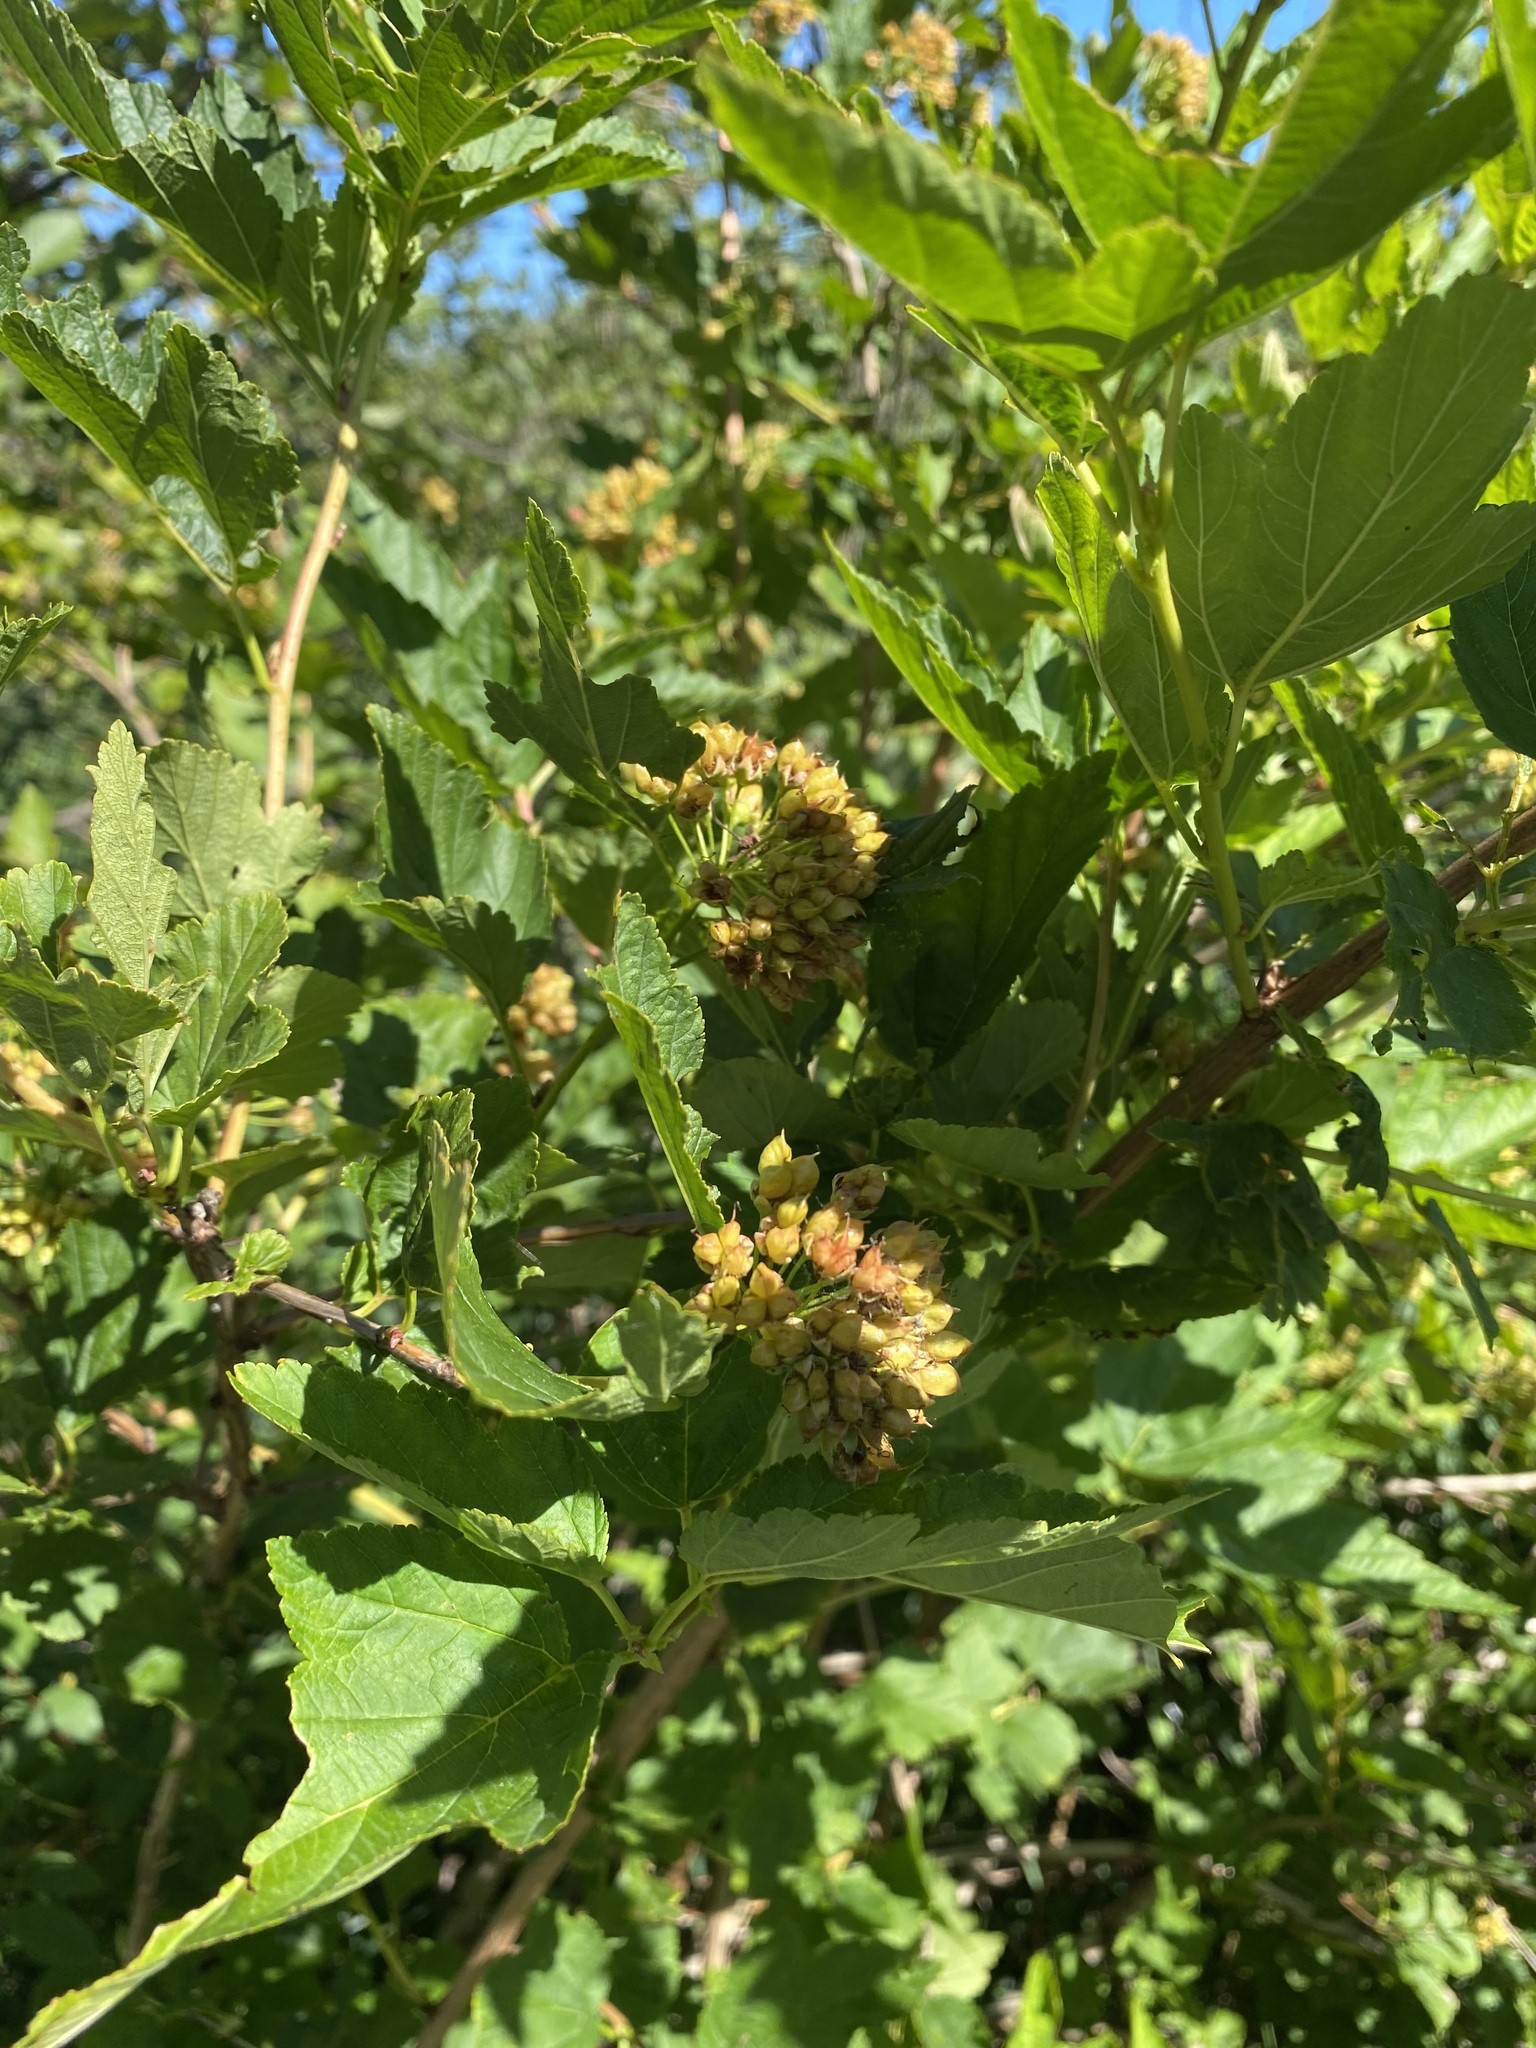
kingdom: Plantae
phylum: Tracheophyta
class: Magnoliopsida
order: Rosales
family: Rosaceae
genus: Physocarpus
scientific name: Physocarpus opulifolius
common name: Ninebark
